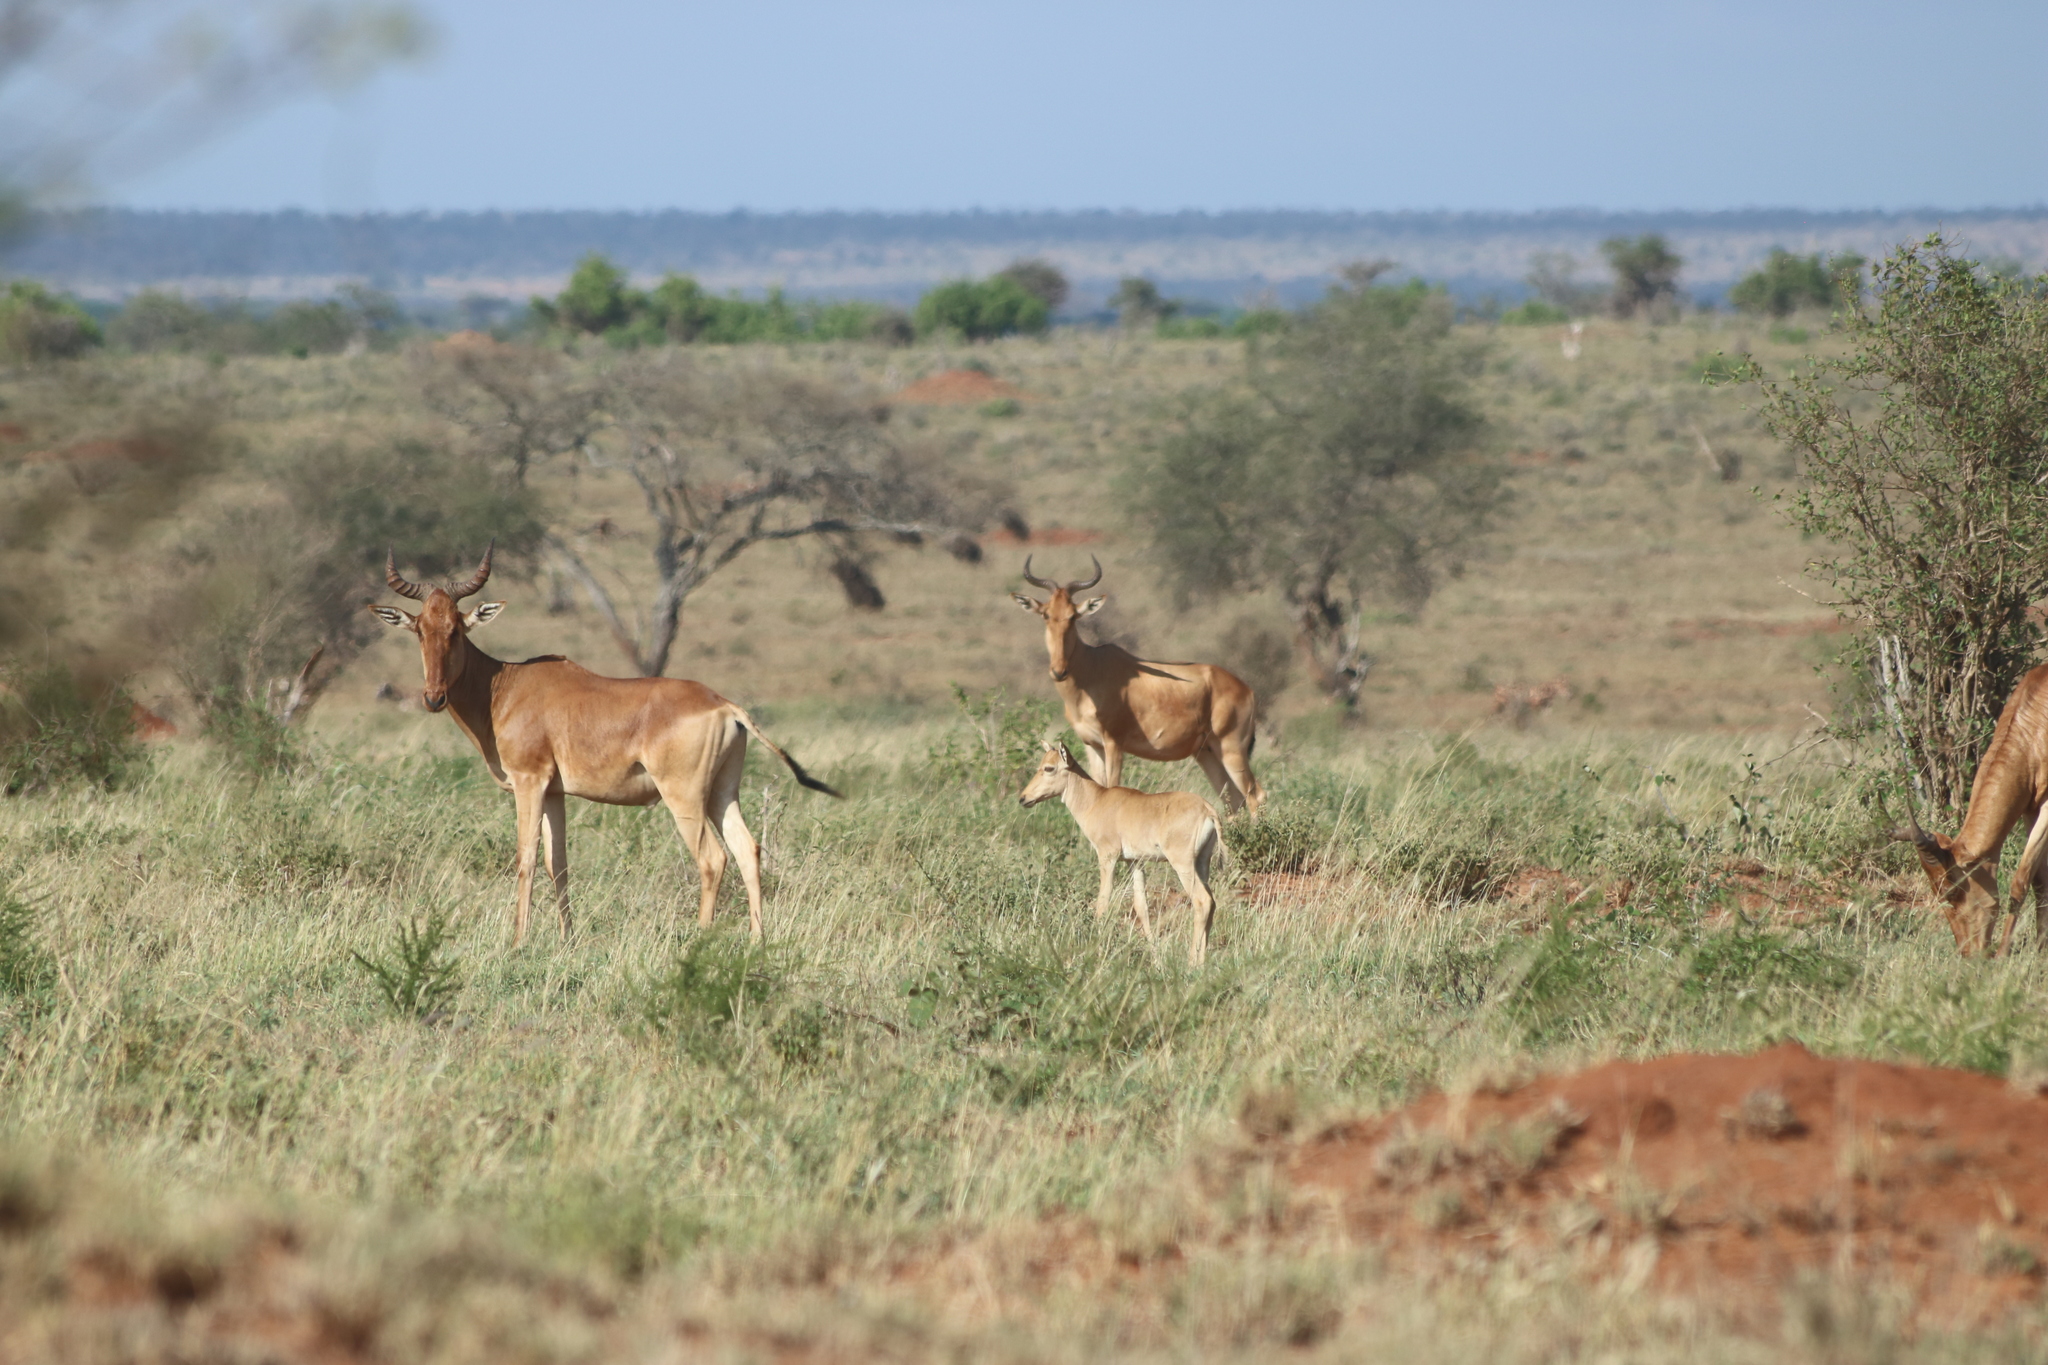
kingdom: Animalia
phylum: Chordata
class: Mammalia
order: Artiodactyla
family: Bovidae
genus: Alcelaphus
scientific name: Alcelaphus buselaphus
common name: Hartebeest
